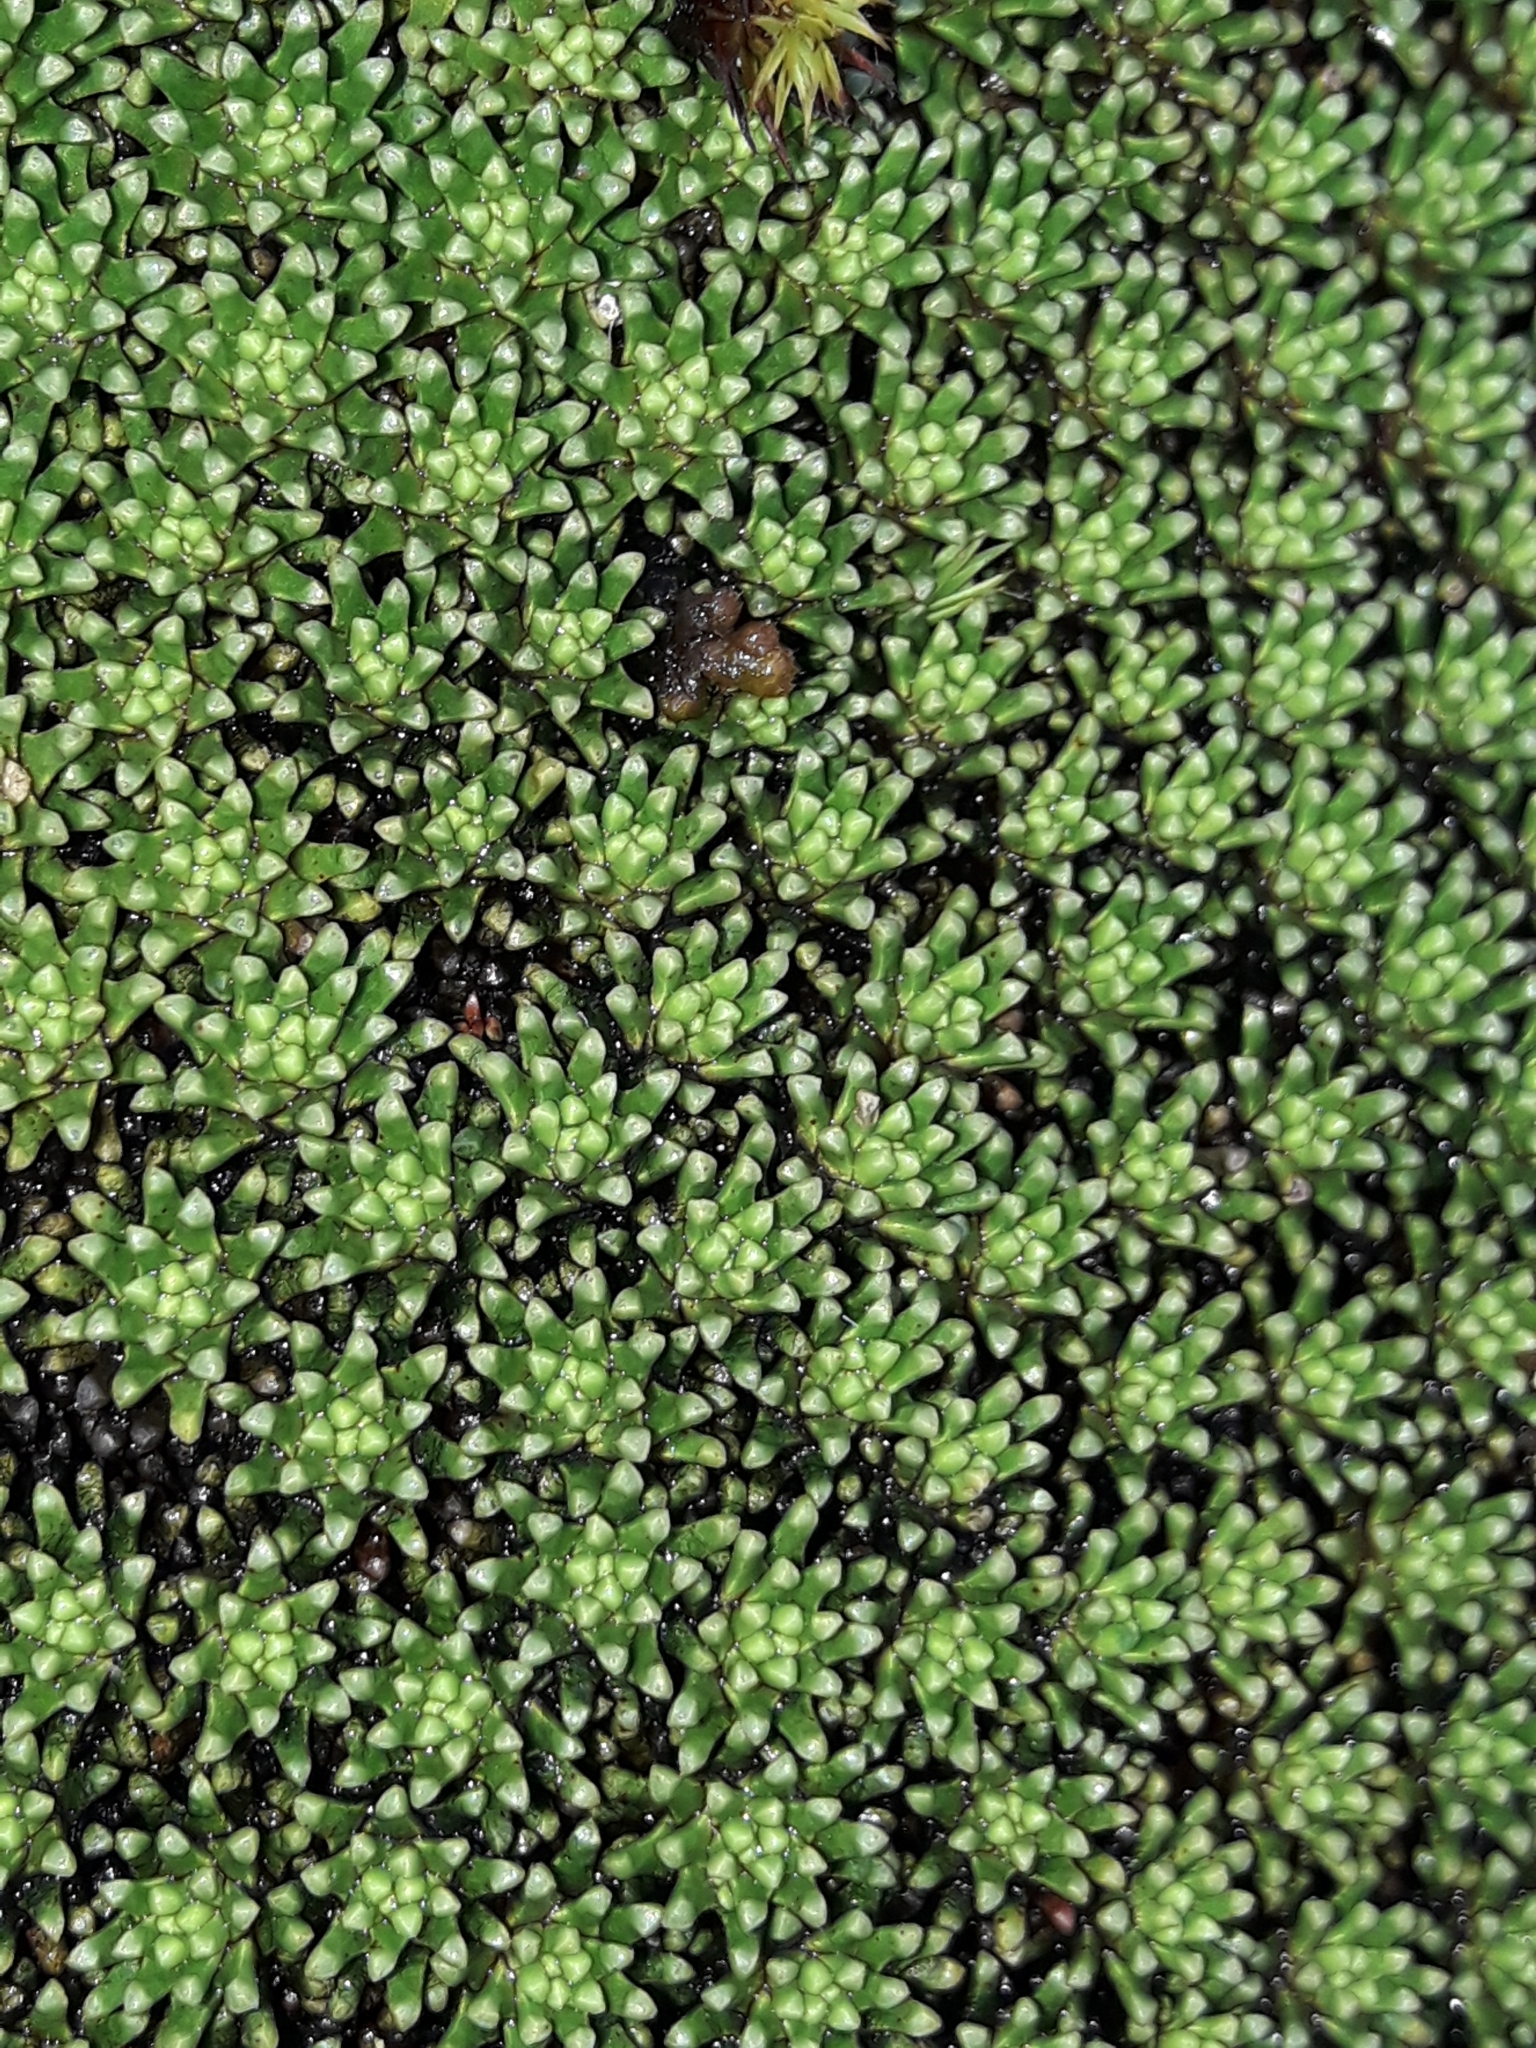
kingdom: Plantae
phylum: Tracheophyta
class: Magnoliopsida
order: Asterales
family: Stylidiaceae
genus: Phyllachne
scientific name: Phyllachne colensoi
